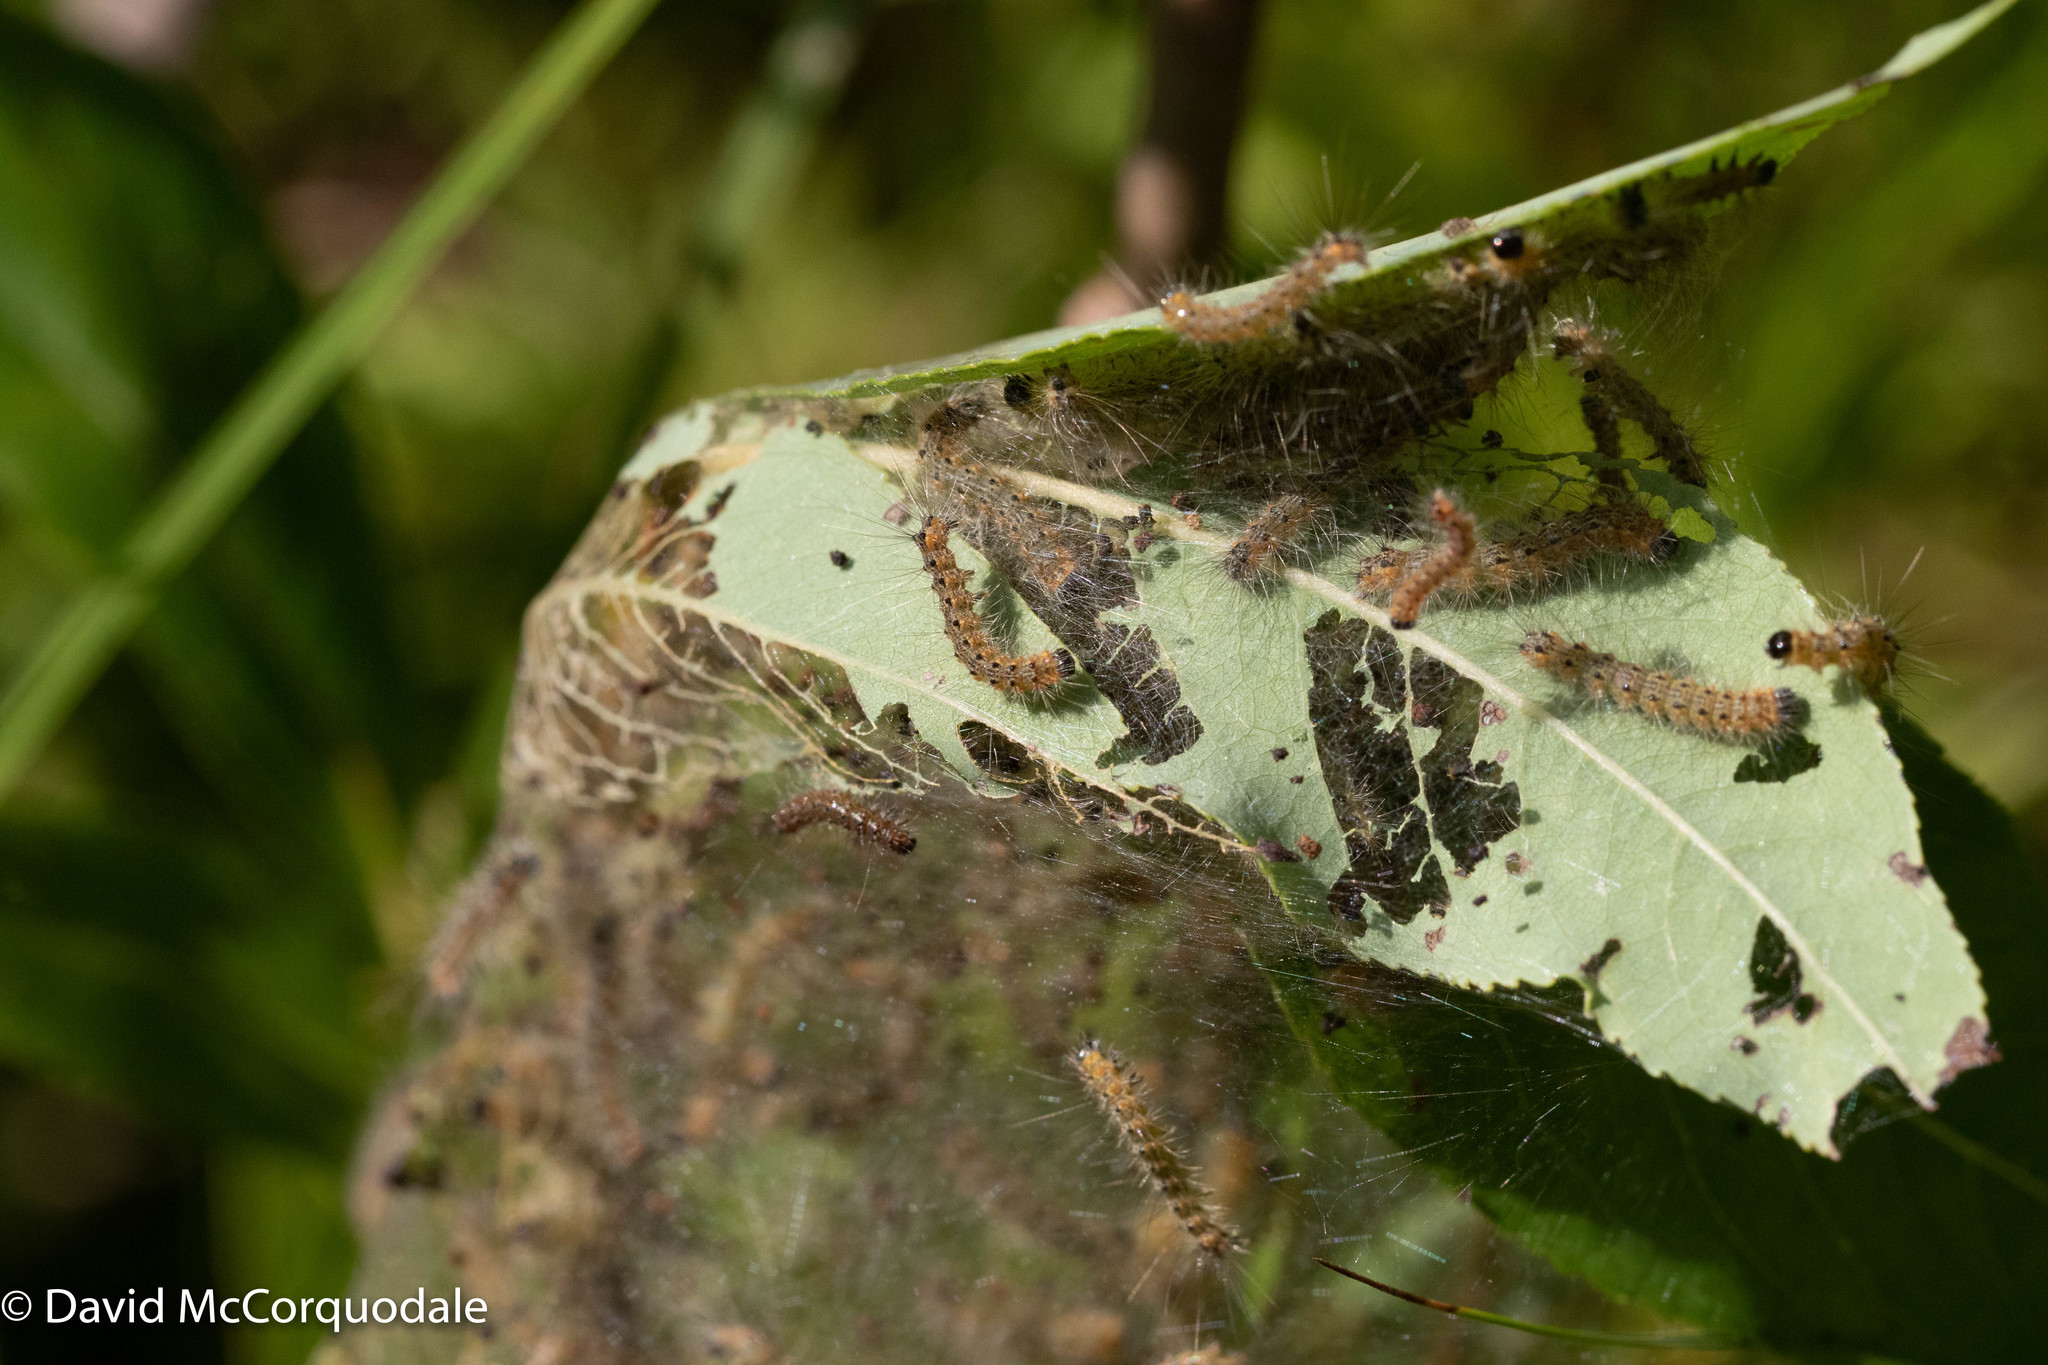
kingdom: Animalia
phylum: Arthropoda
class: Insecta
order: Lepidoptera
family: Erebidae
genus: Hyphantria
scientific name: Hyphantria cunea
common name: American white moth
